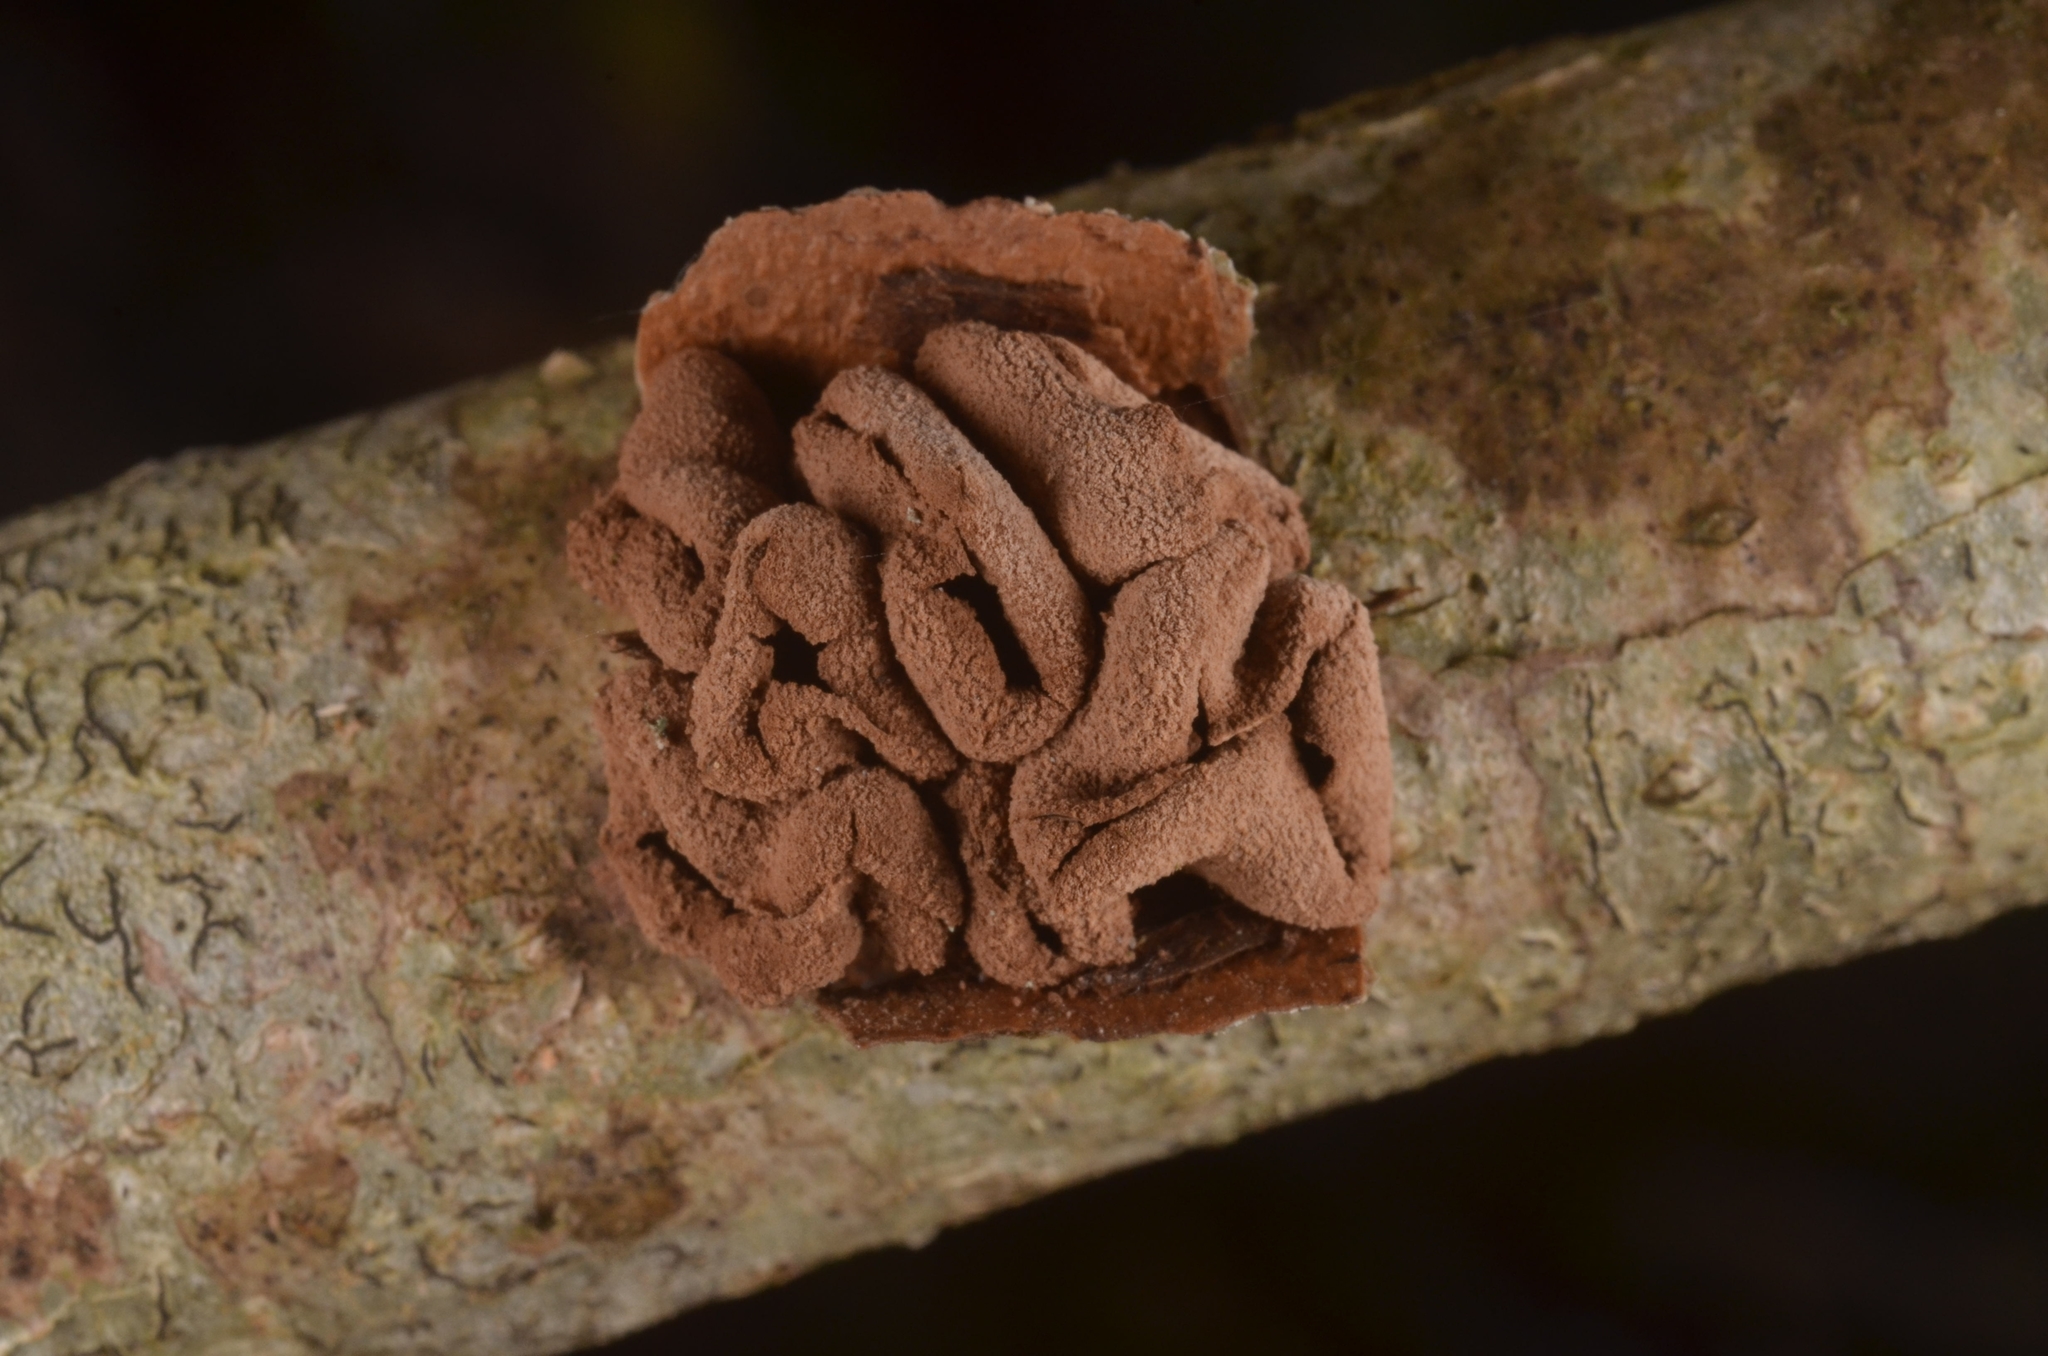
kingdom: Fungi
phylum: Ascomycota
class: Leotiomycetes
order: Helotiales
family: Cenangiaceae
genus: Encoelia
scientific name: Encoelia furfuracea
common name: Spring hazelcup
